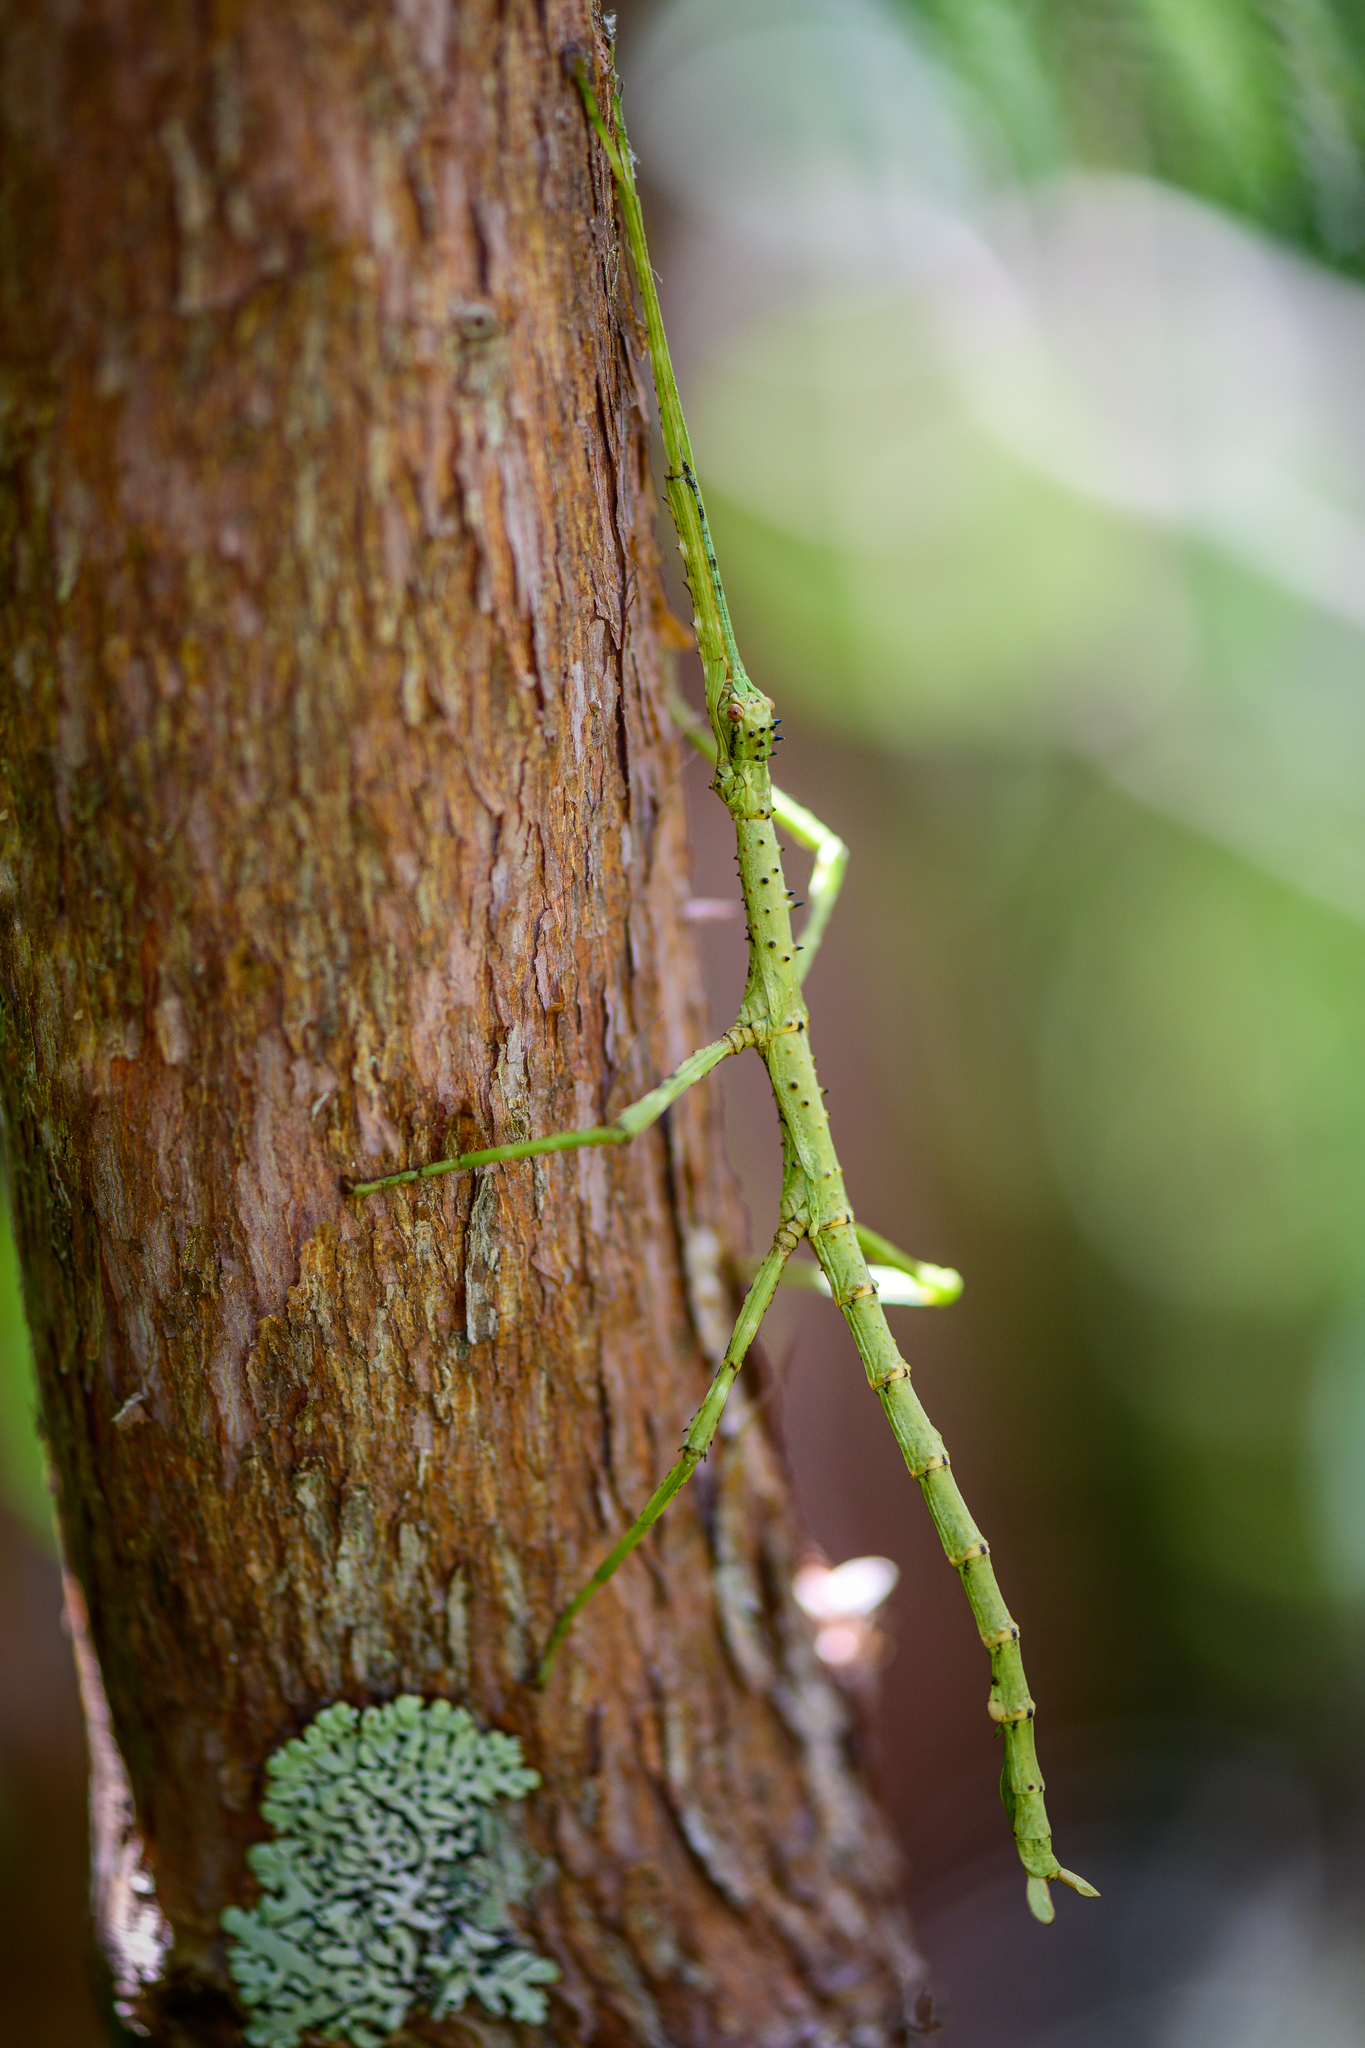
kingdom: Animalia
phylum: Arthropoda
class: Insecta
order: Phasmida
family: Phasmatidae
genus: Acanthoxyla
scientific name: Acanthoxyla prasina
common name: Black-spined stick insect
